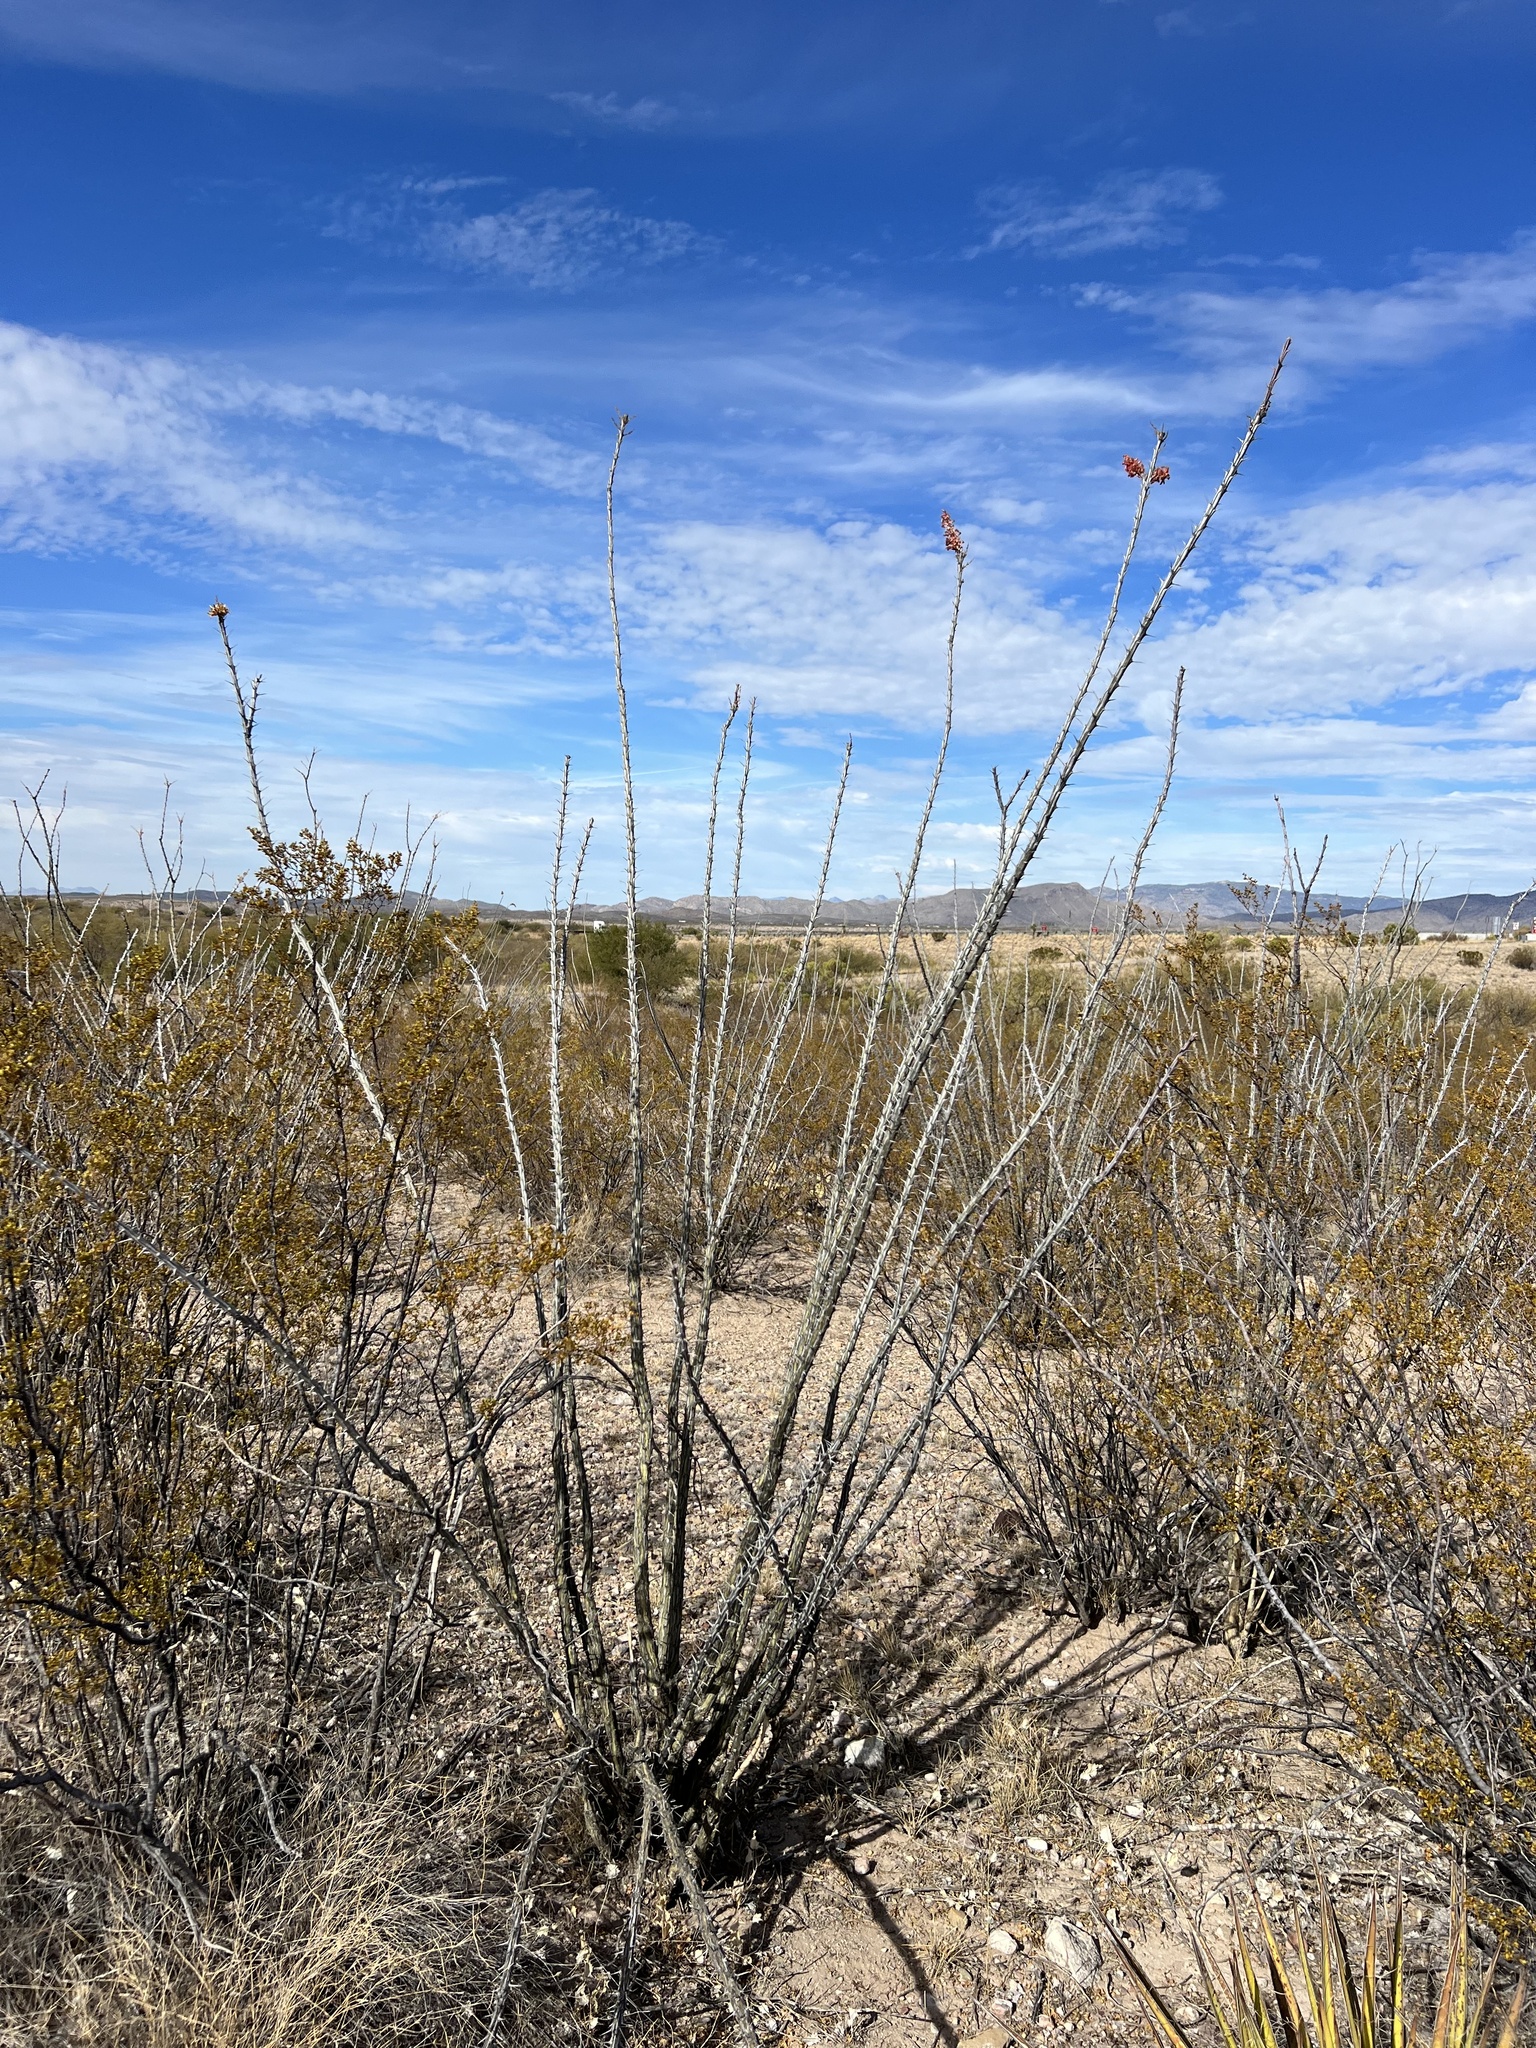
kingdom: Plantae
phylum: Tracheophyta
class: Magnoliopsida
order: Ericales
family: Fouquieriaceae
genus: Fouquieria
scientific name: Fouquieria splendens
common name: Vine-cactus
